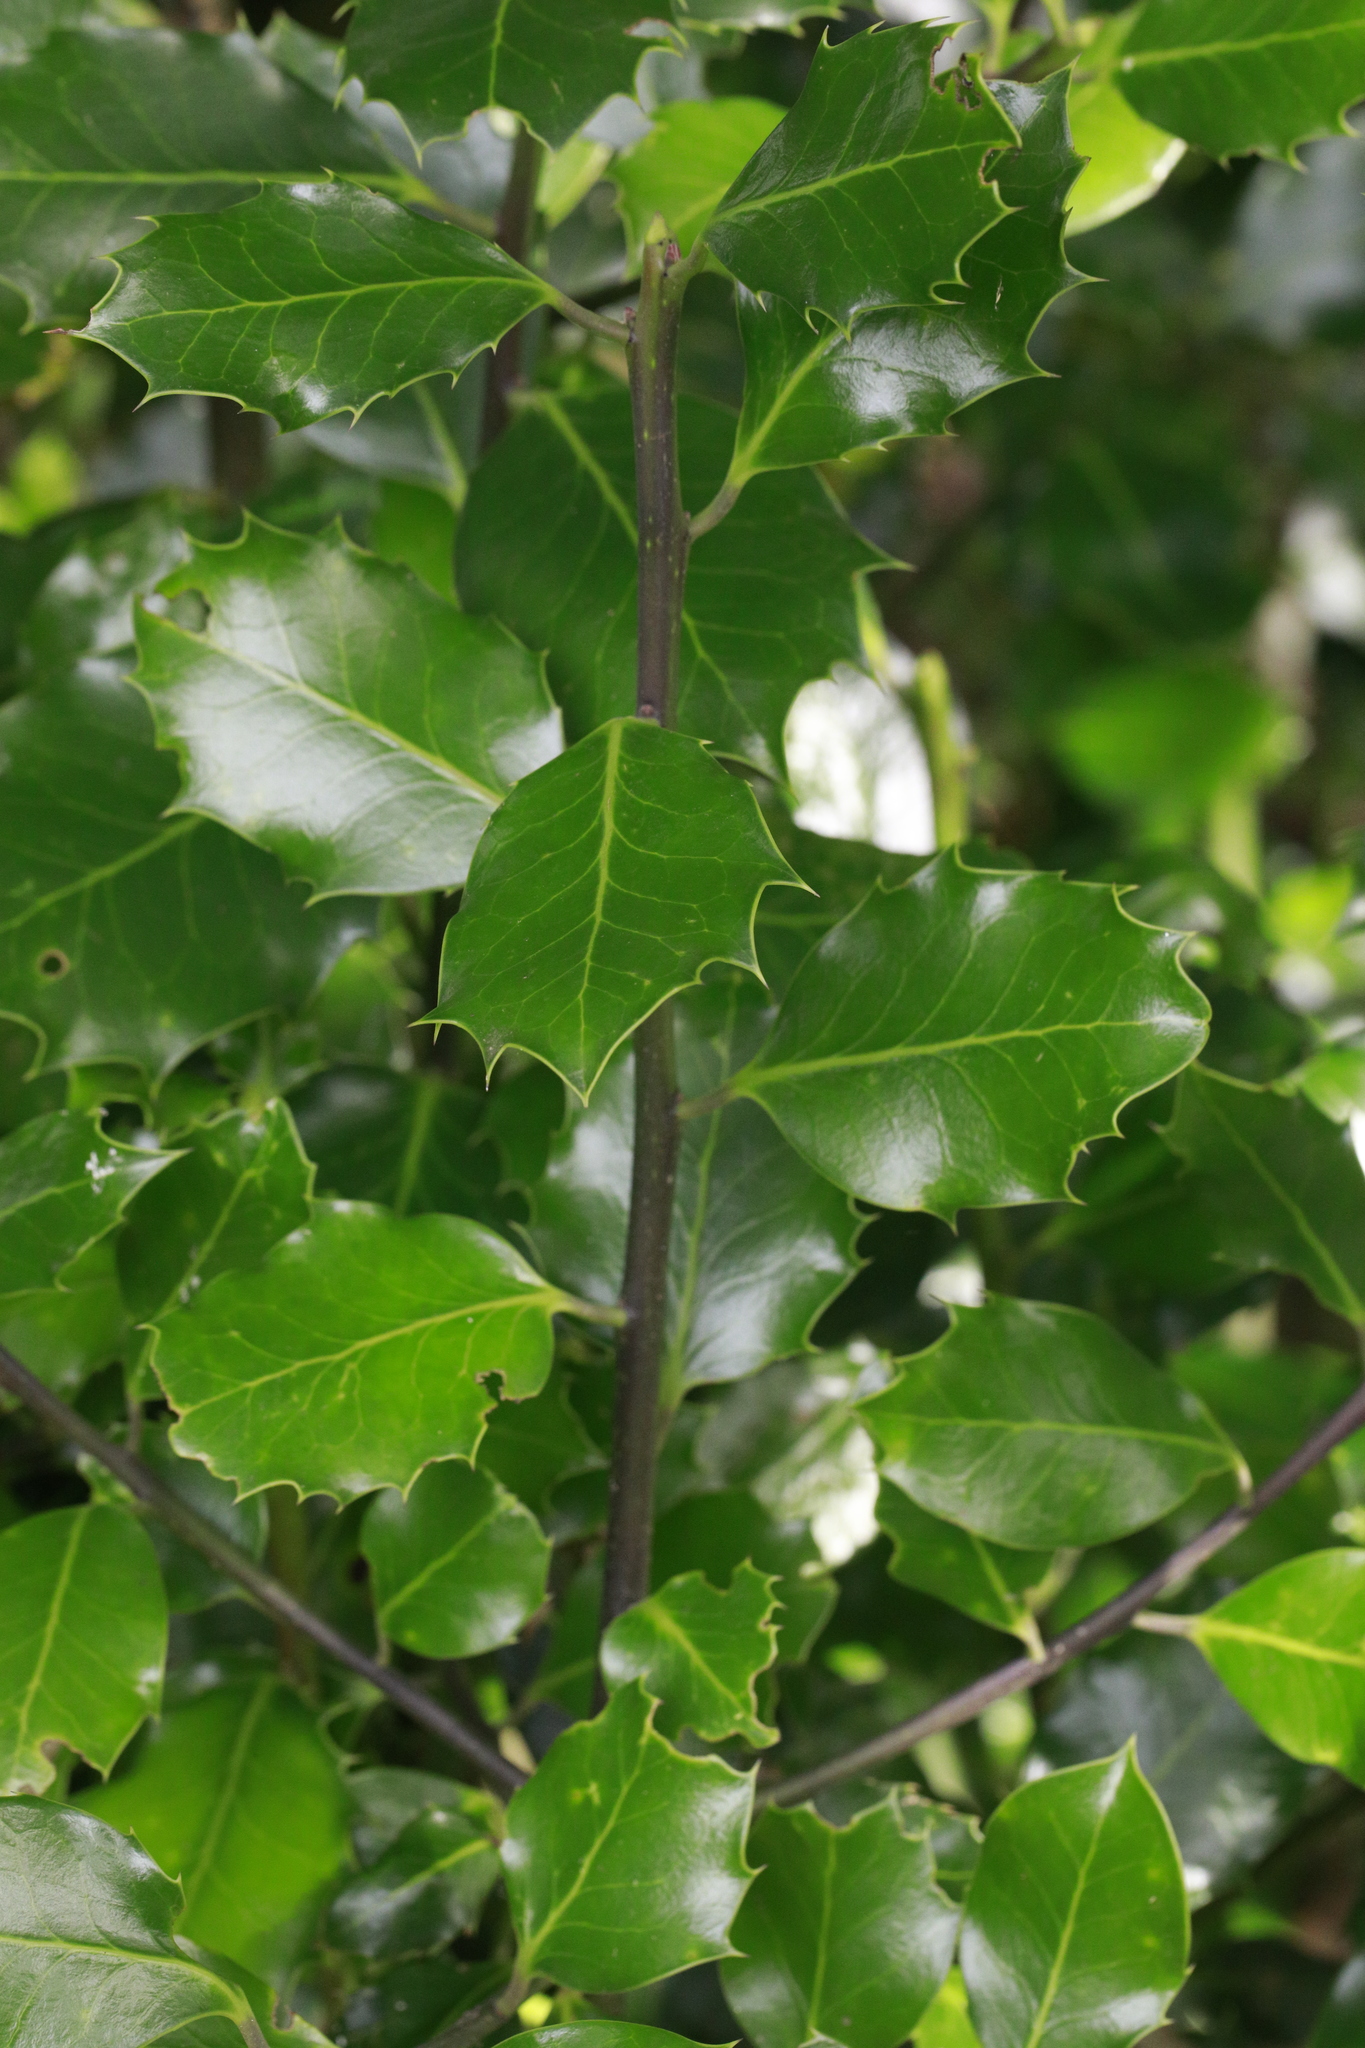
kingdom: Plantae
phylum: Tracheophyta
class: Magnoliopsida
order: Aquifoliales
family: Aquifoliaceae
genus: Ilex
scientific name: Ilex aquifolium
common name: English holly
